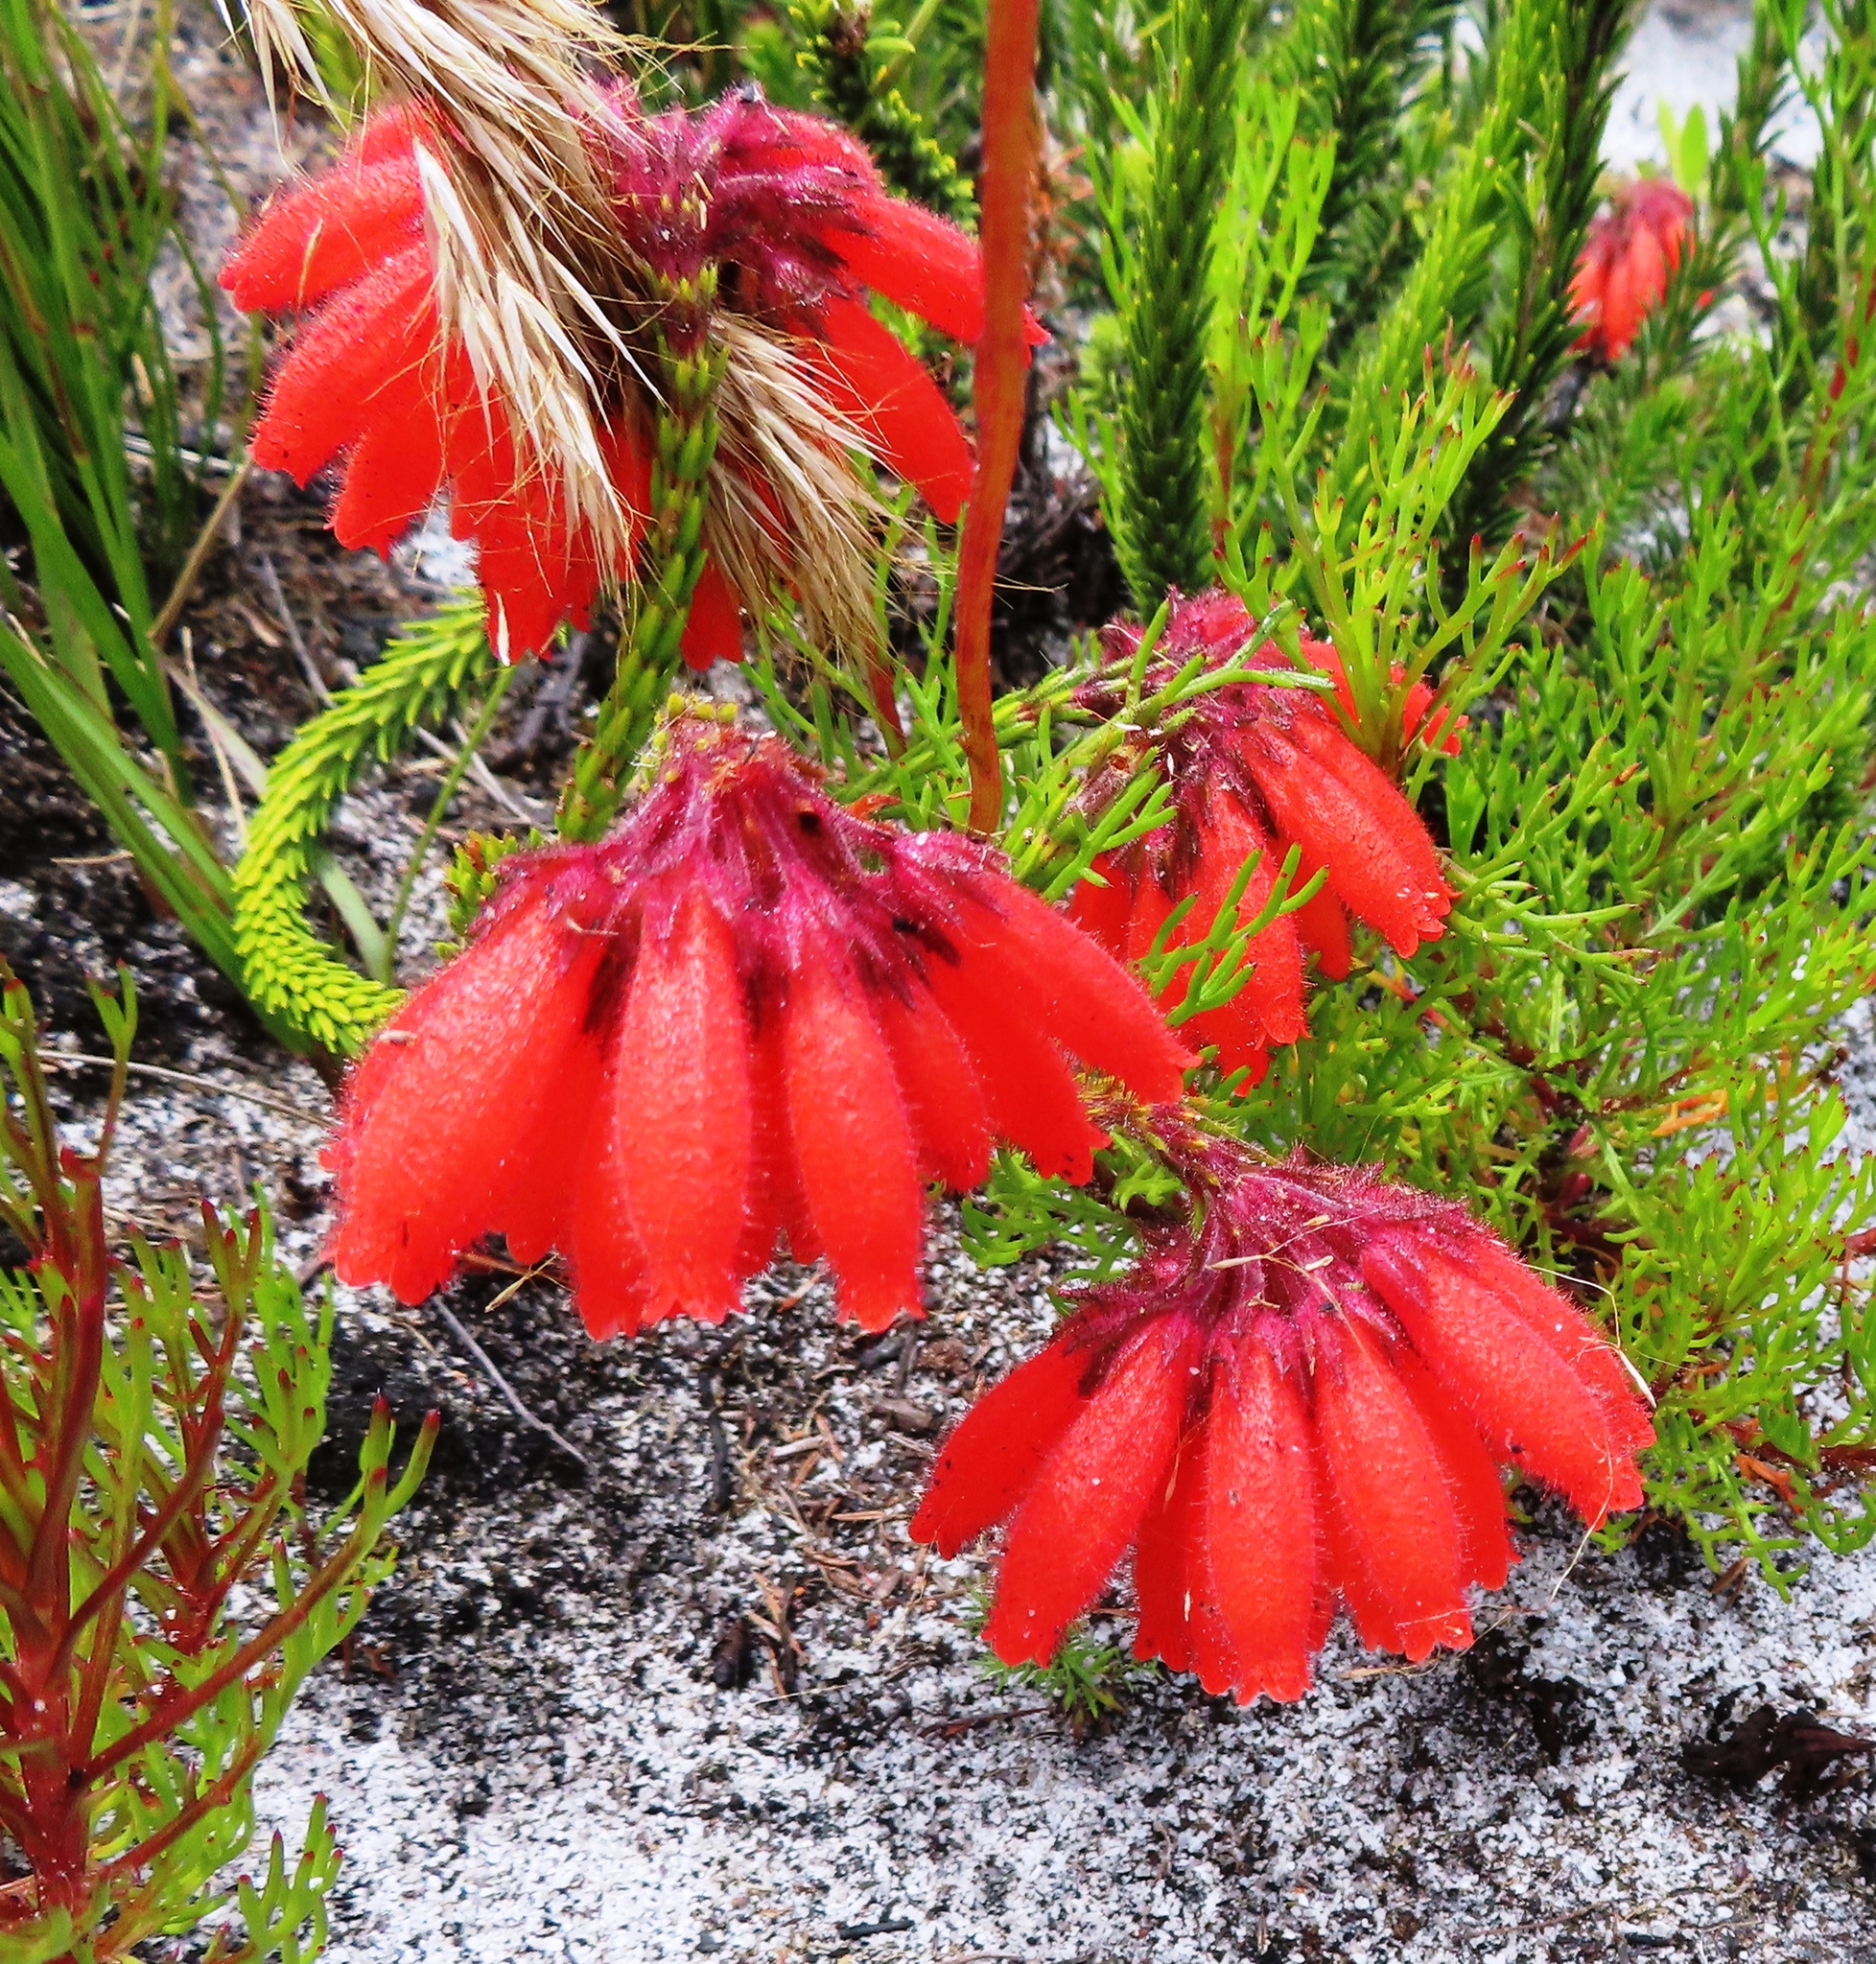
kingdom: Plantae
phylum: Tracheophyta
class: Magnoliopsida
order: Ericales
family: Ericaceae
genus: Erica
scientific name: Erica cerinthoides
